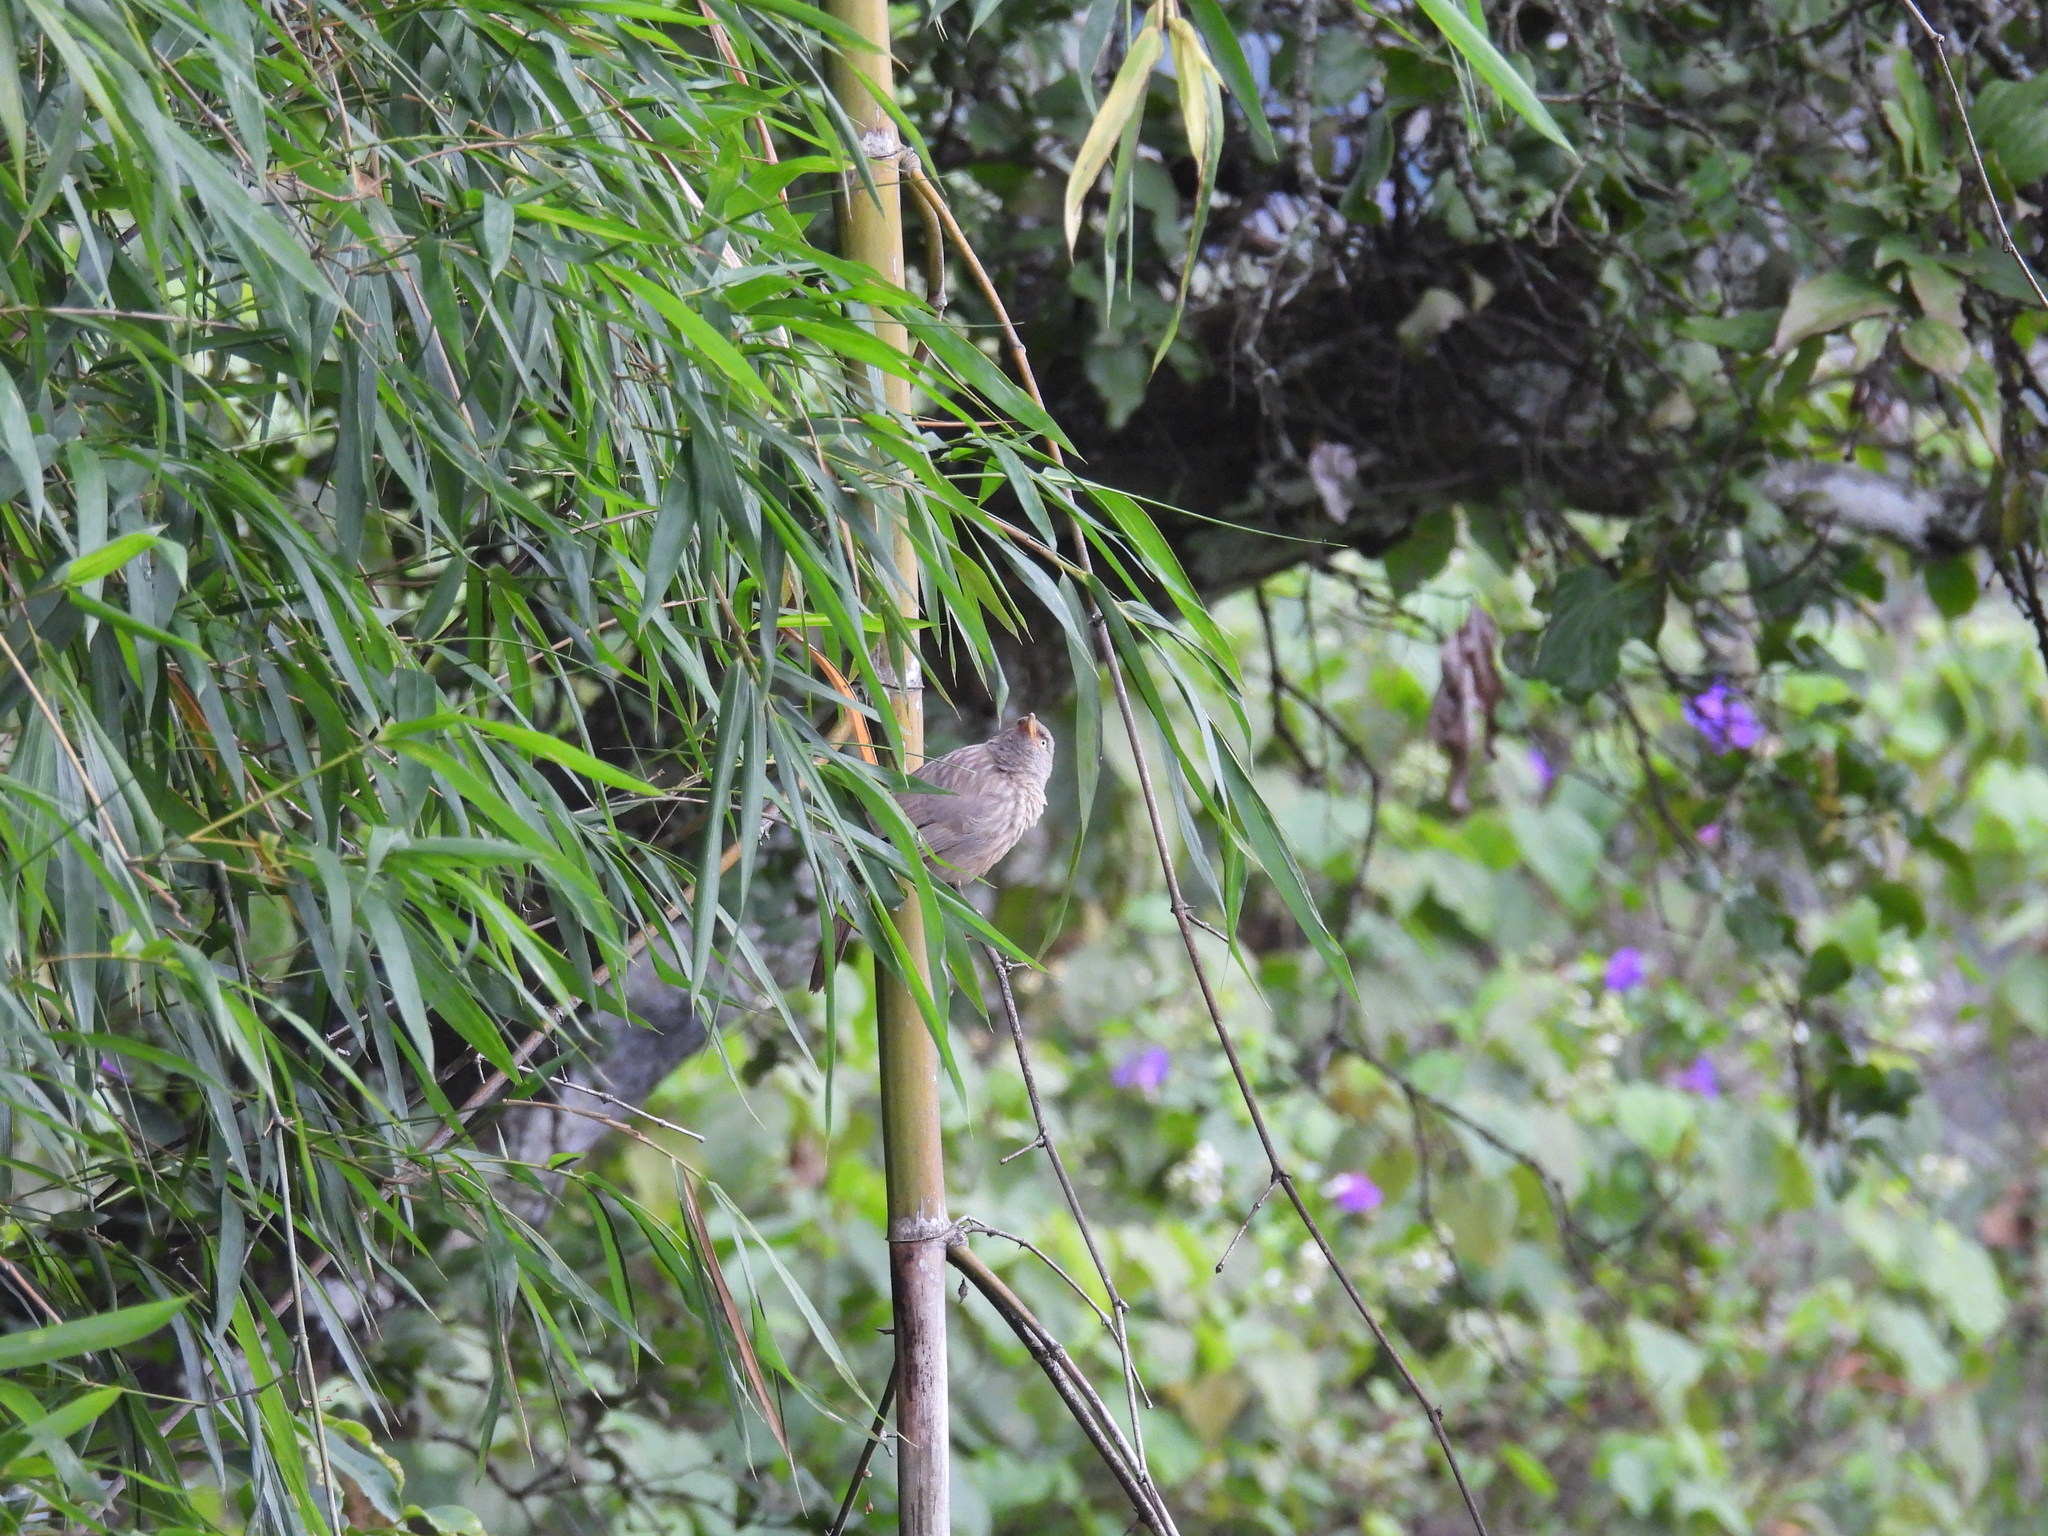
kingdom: Animalia
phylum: Chordata
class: Aves
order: Passeriformes
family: Leiothrichidae
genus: Turdoides
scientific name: Turdoides striata
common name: Jungle babbler
